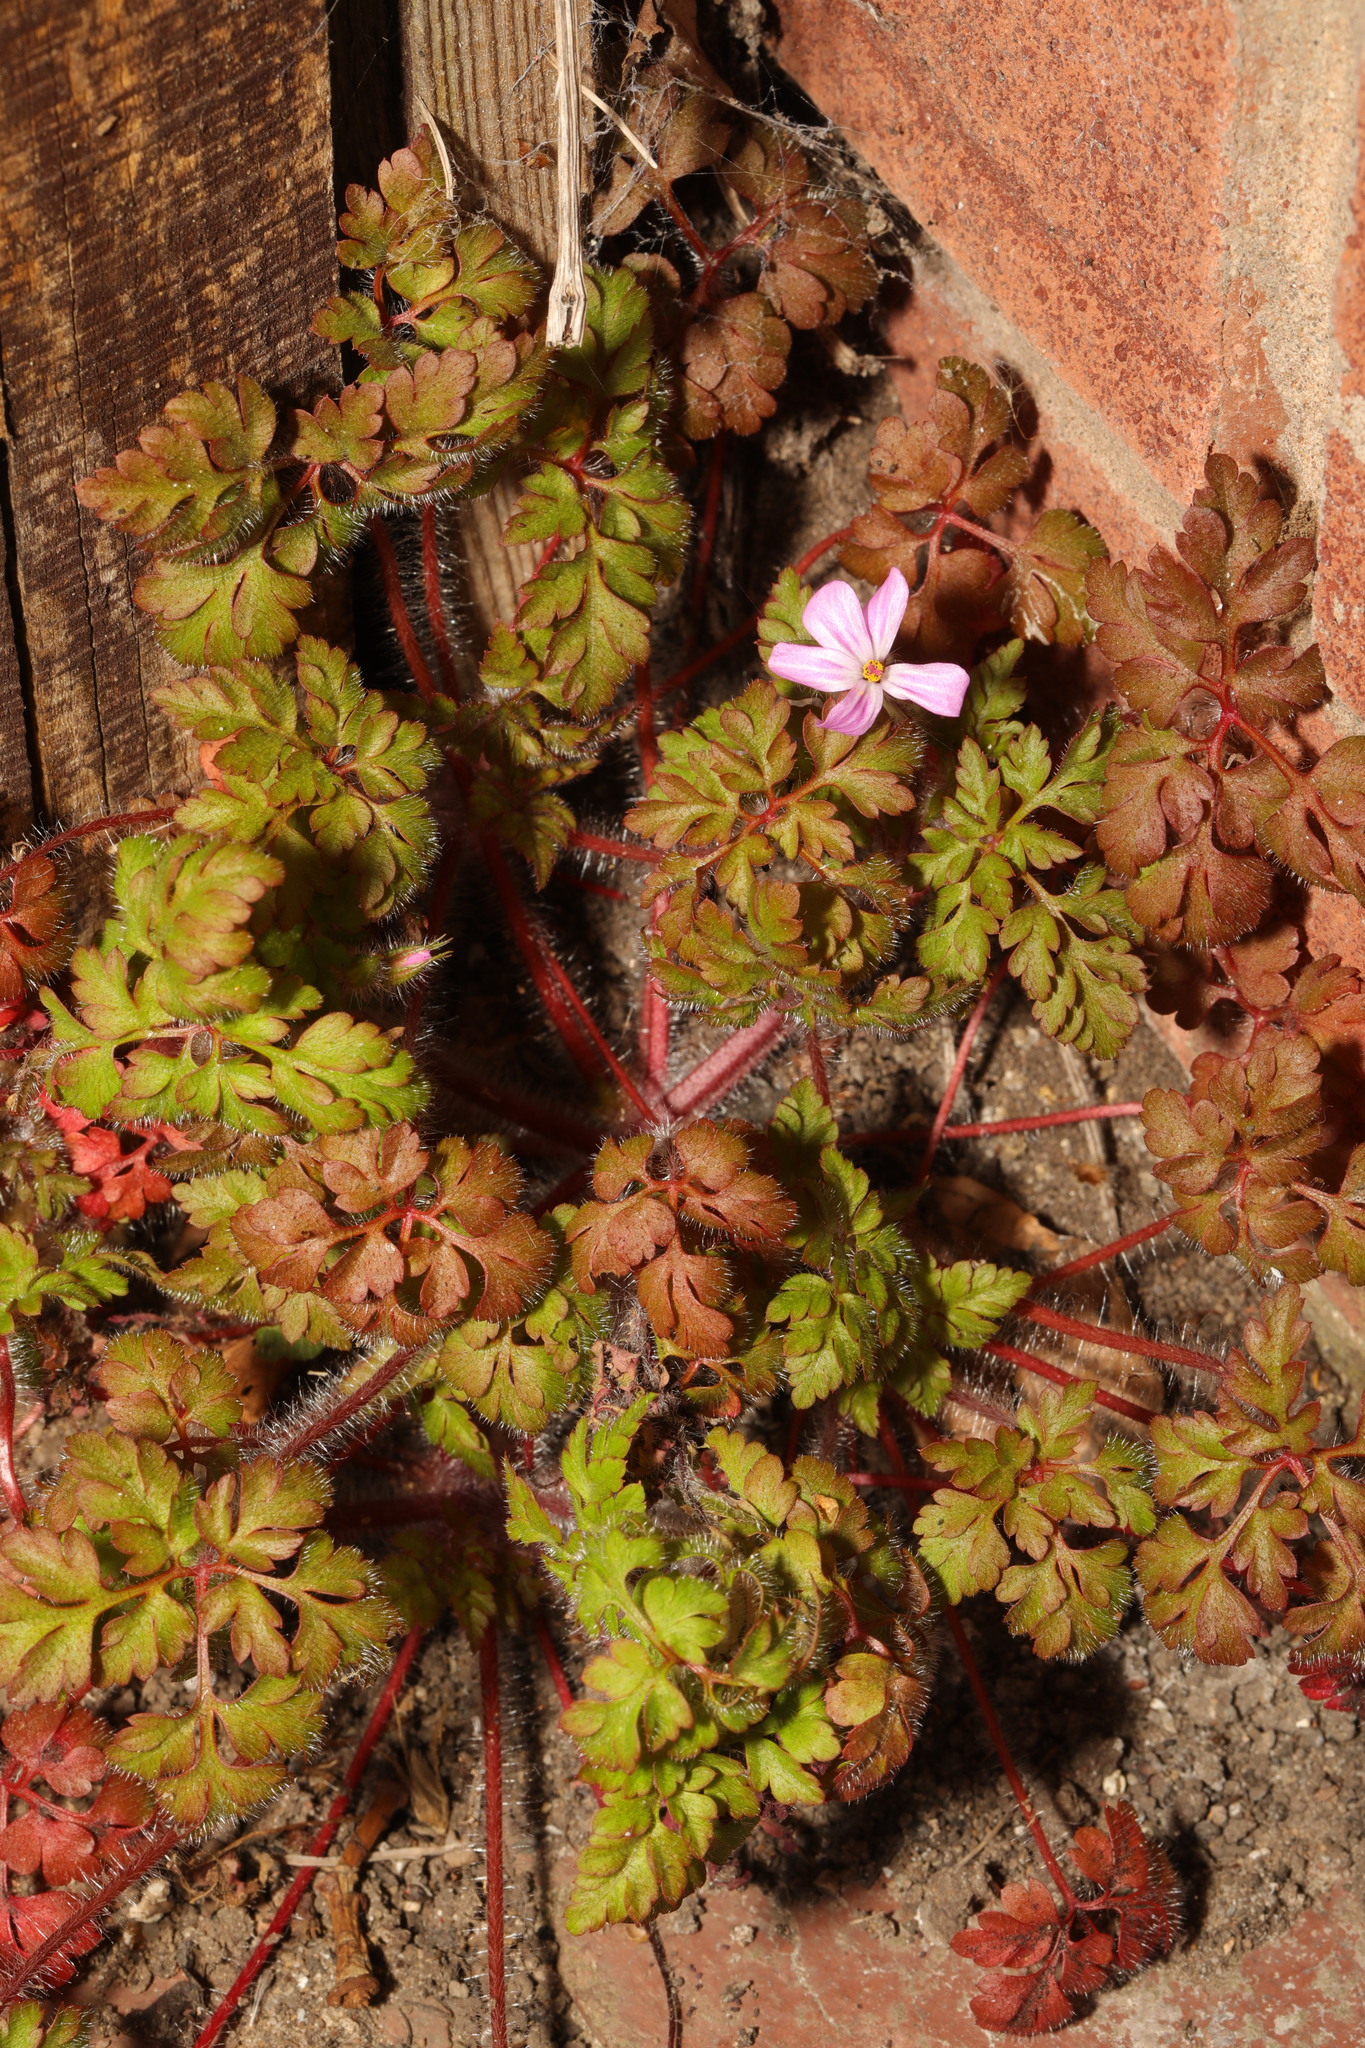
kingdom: Plantae
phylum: Tracheophyta
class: Magnoliopsida
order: Geraniales
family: Geraniaceae
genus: Geranium
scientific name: Geranium robertianum
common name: Herb-robert
